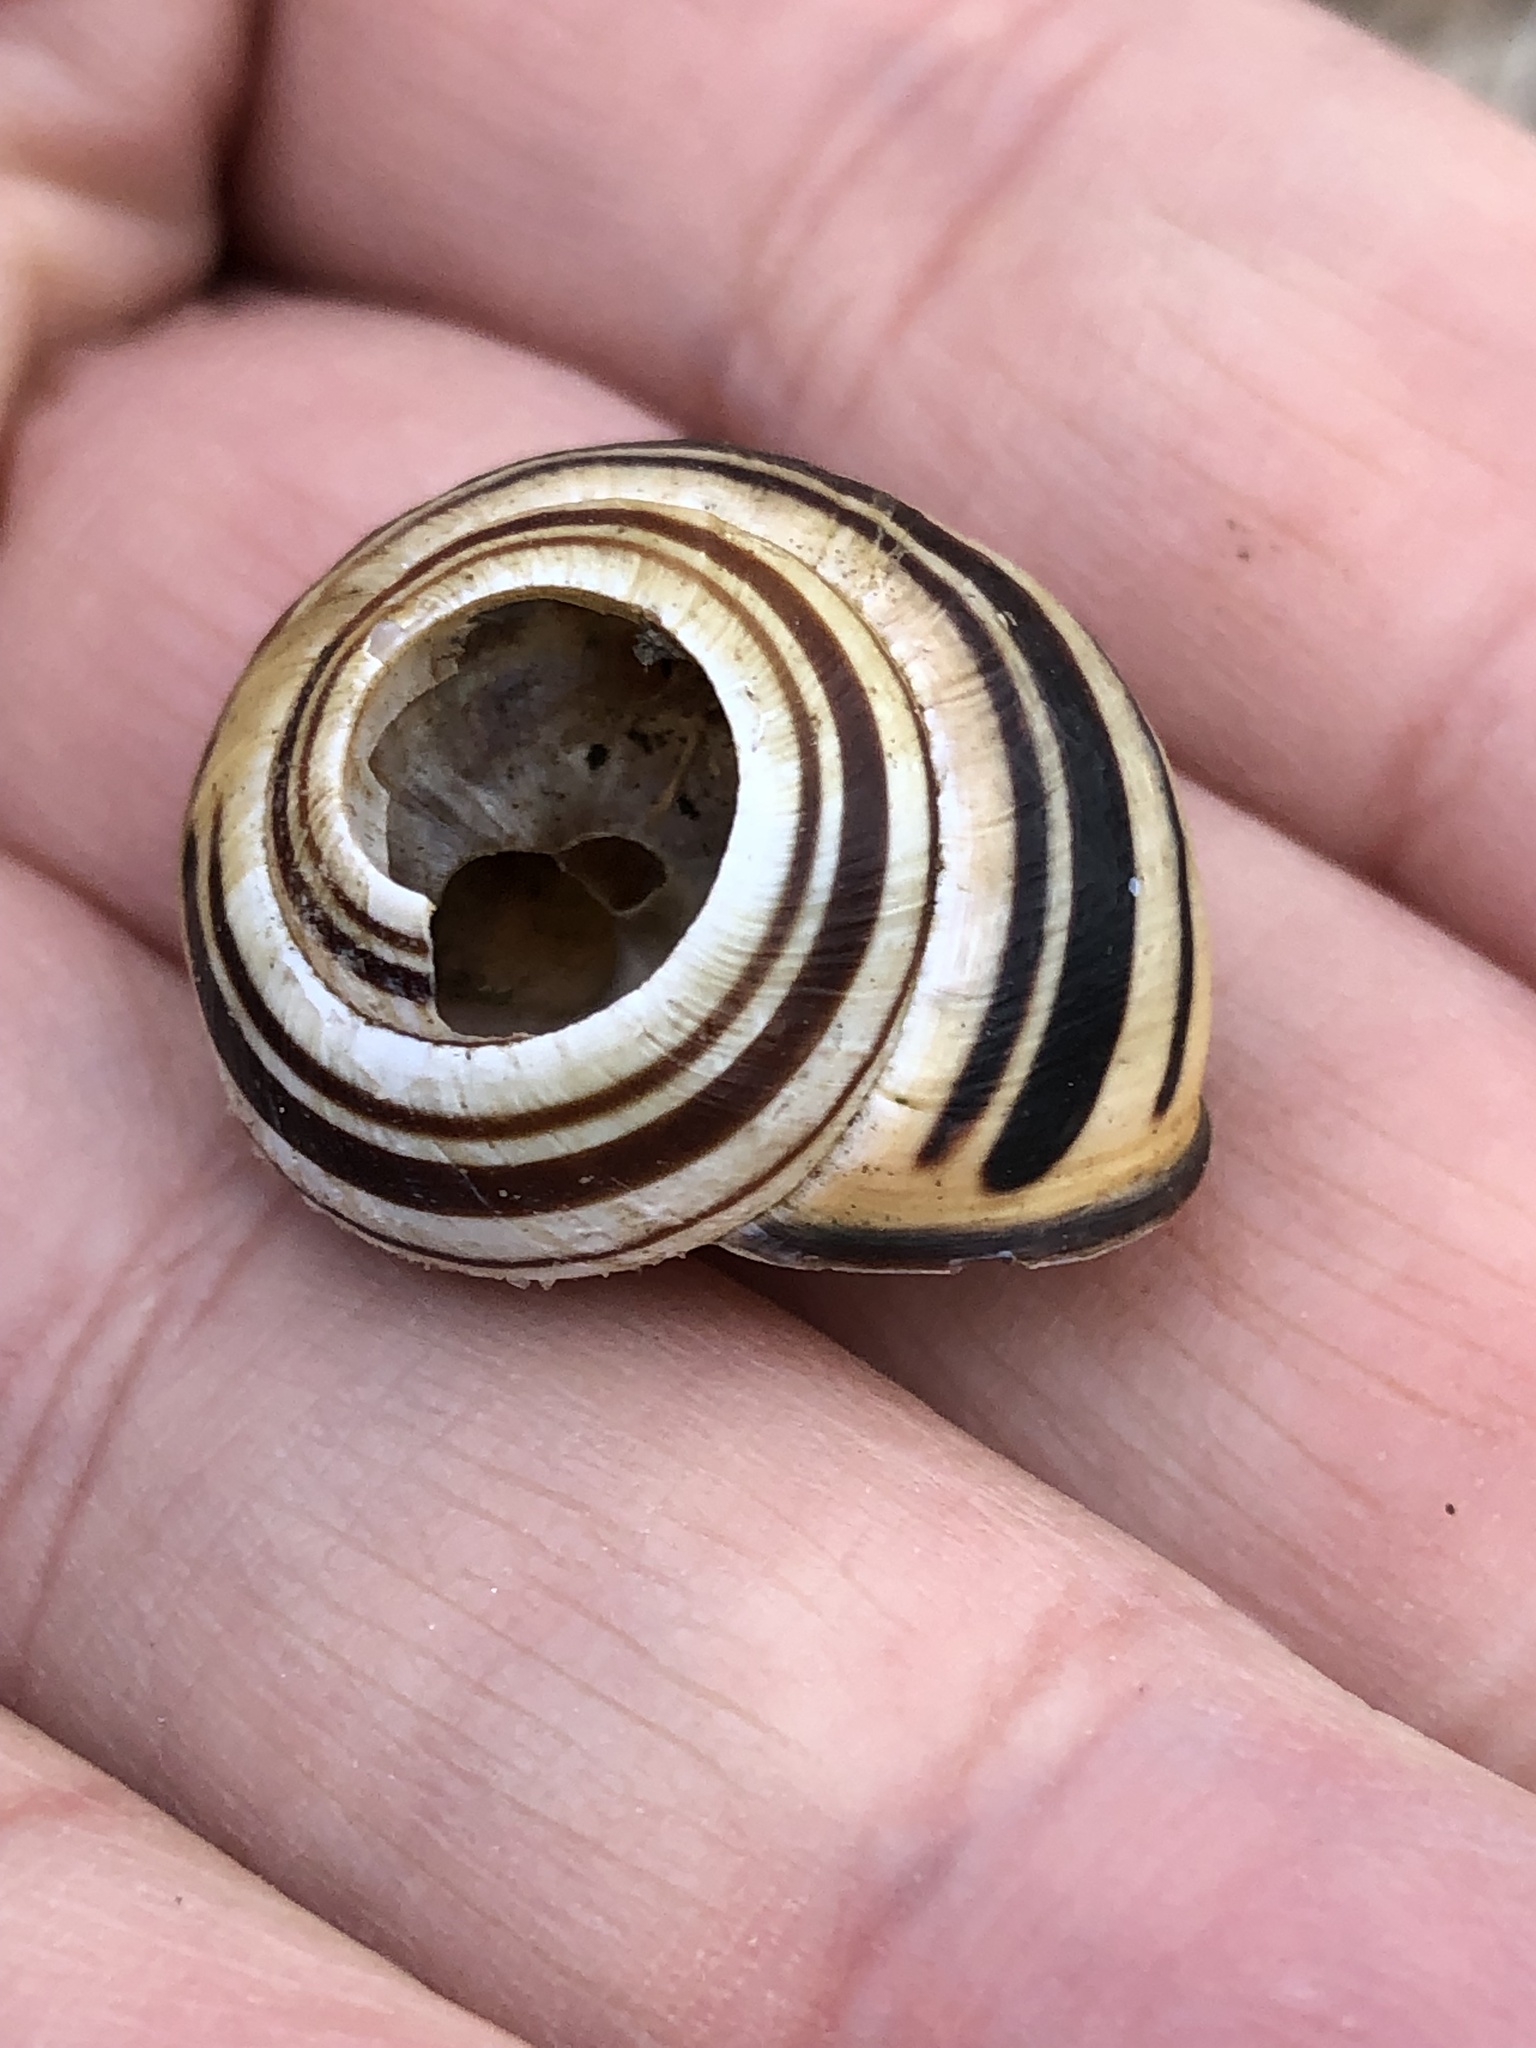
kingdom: Animalia
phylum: Mollusca
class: Gastropoda
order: Stylommatophora
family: Helicidae
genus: Cepaea
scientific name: Cepaea nemoralis
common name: Grovesnail
